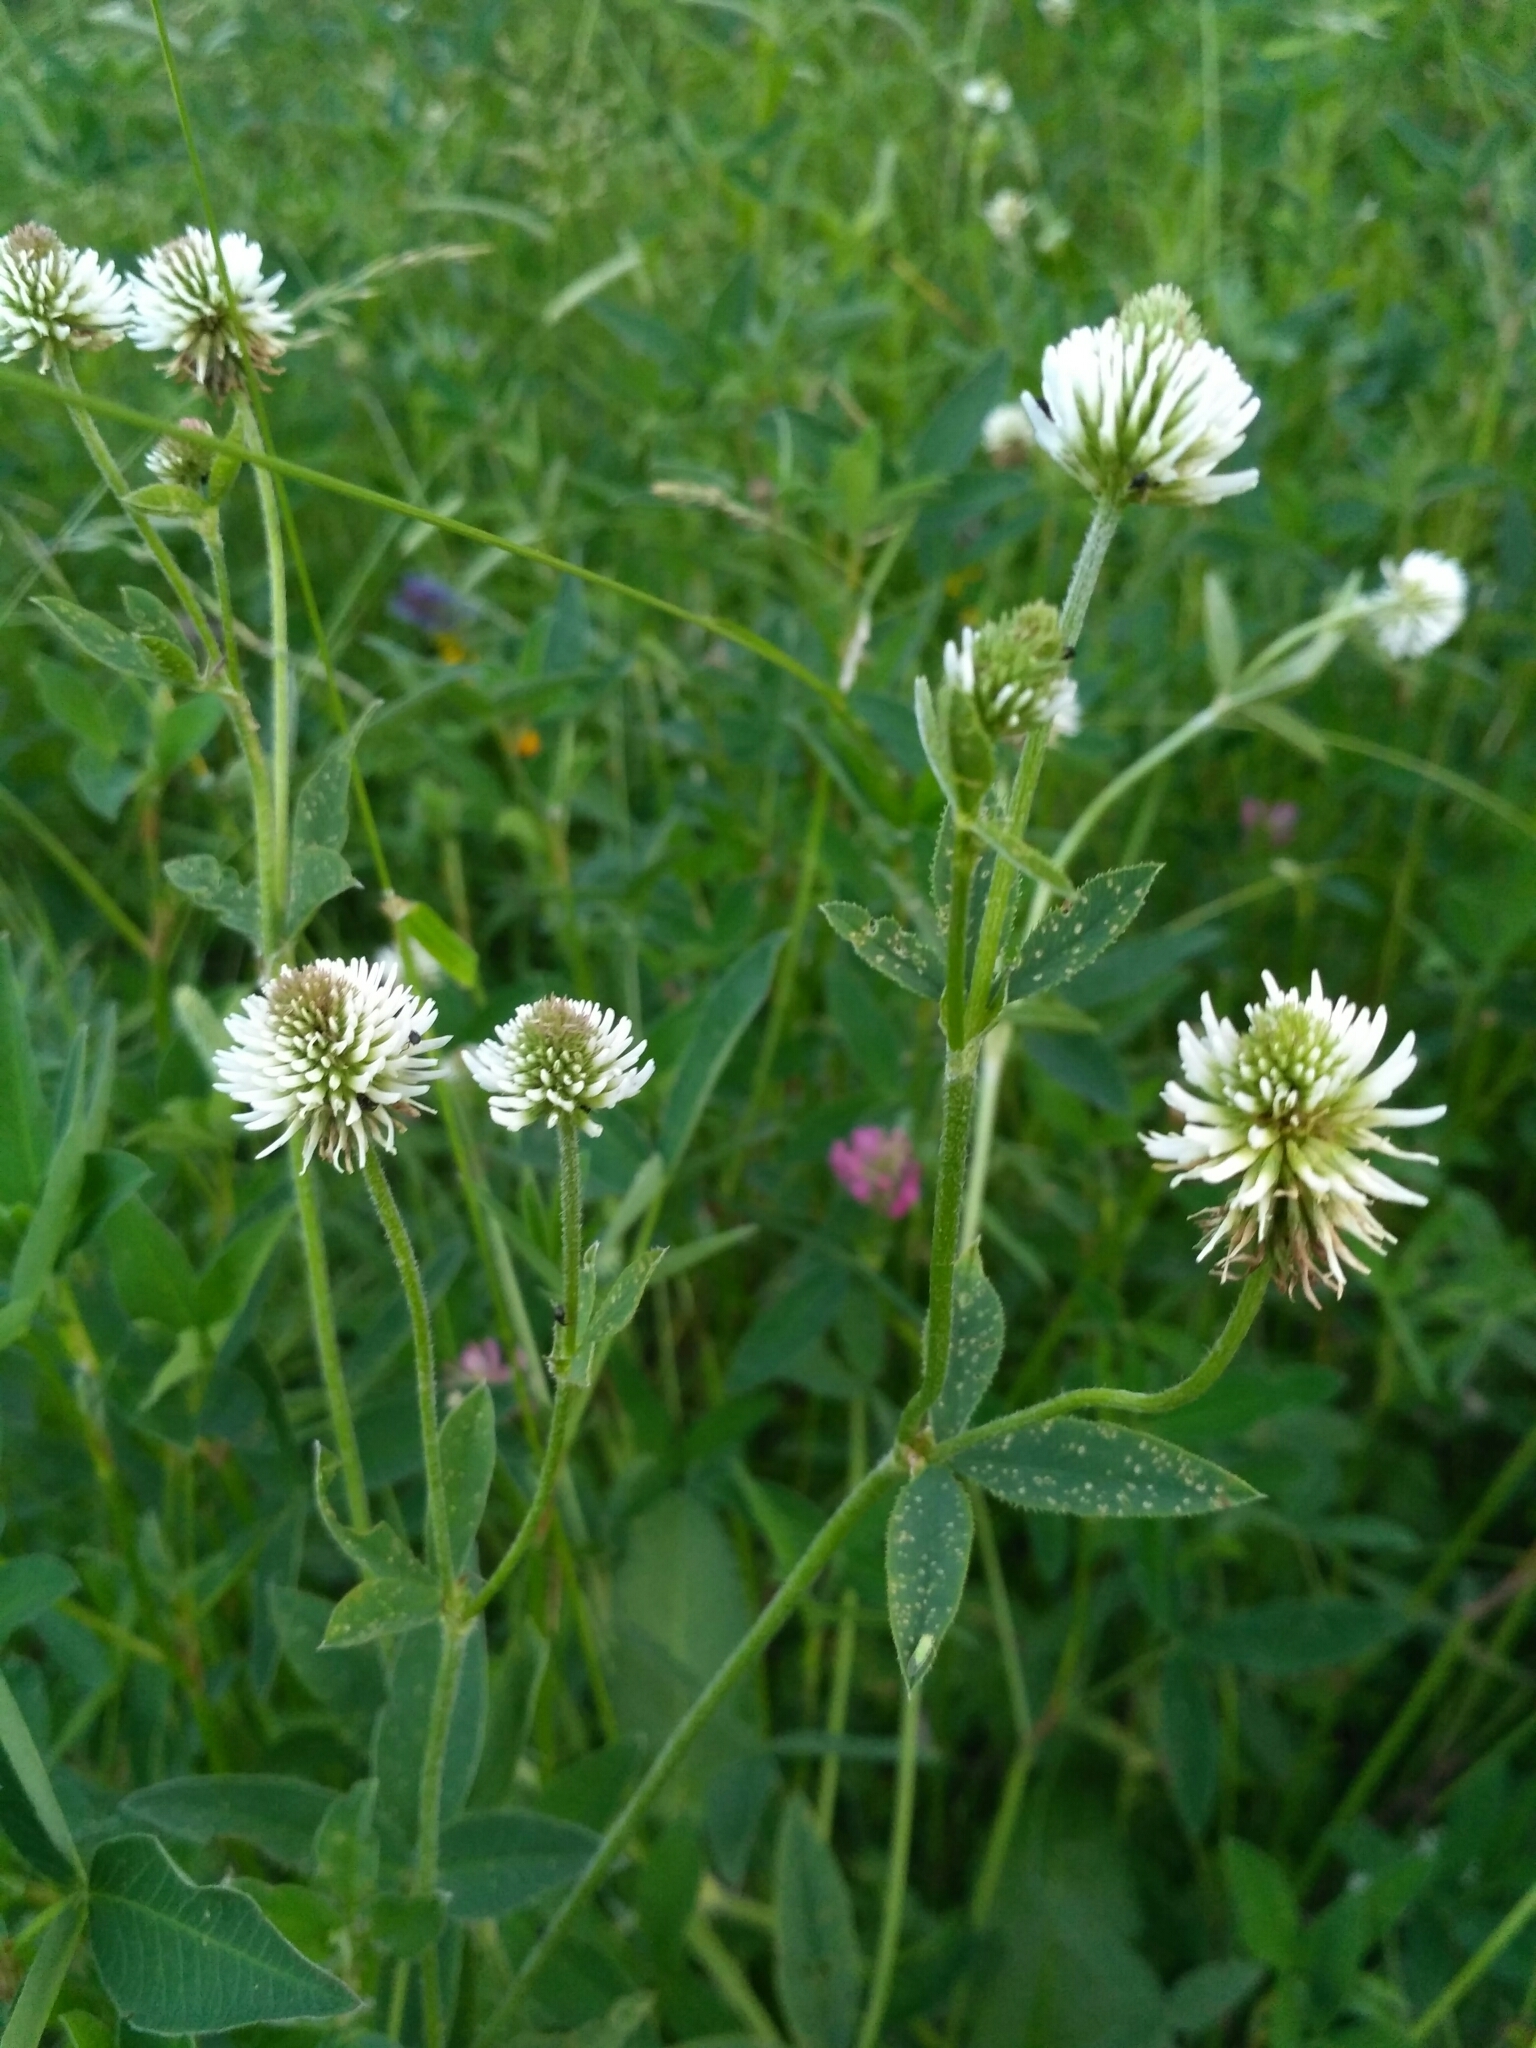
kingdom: Plantae
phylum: Tracheophyta
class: Magnoliopsida
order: Fabales
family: Fabaceae
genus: Trifolium
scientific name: Trifolium montanum
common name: Mountain clover
